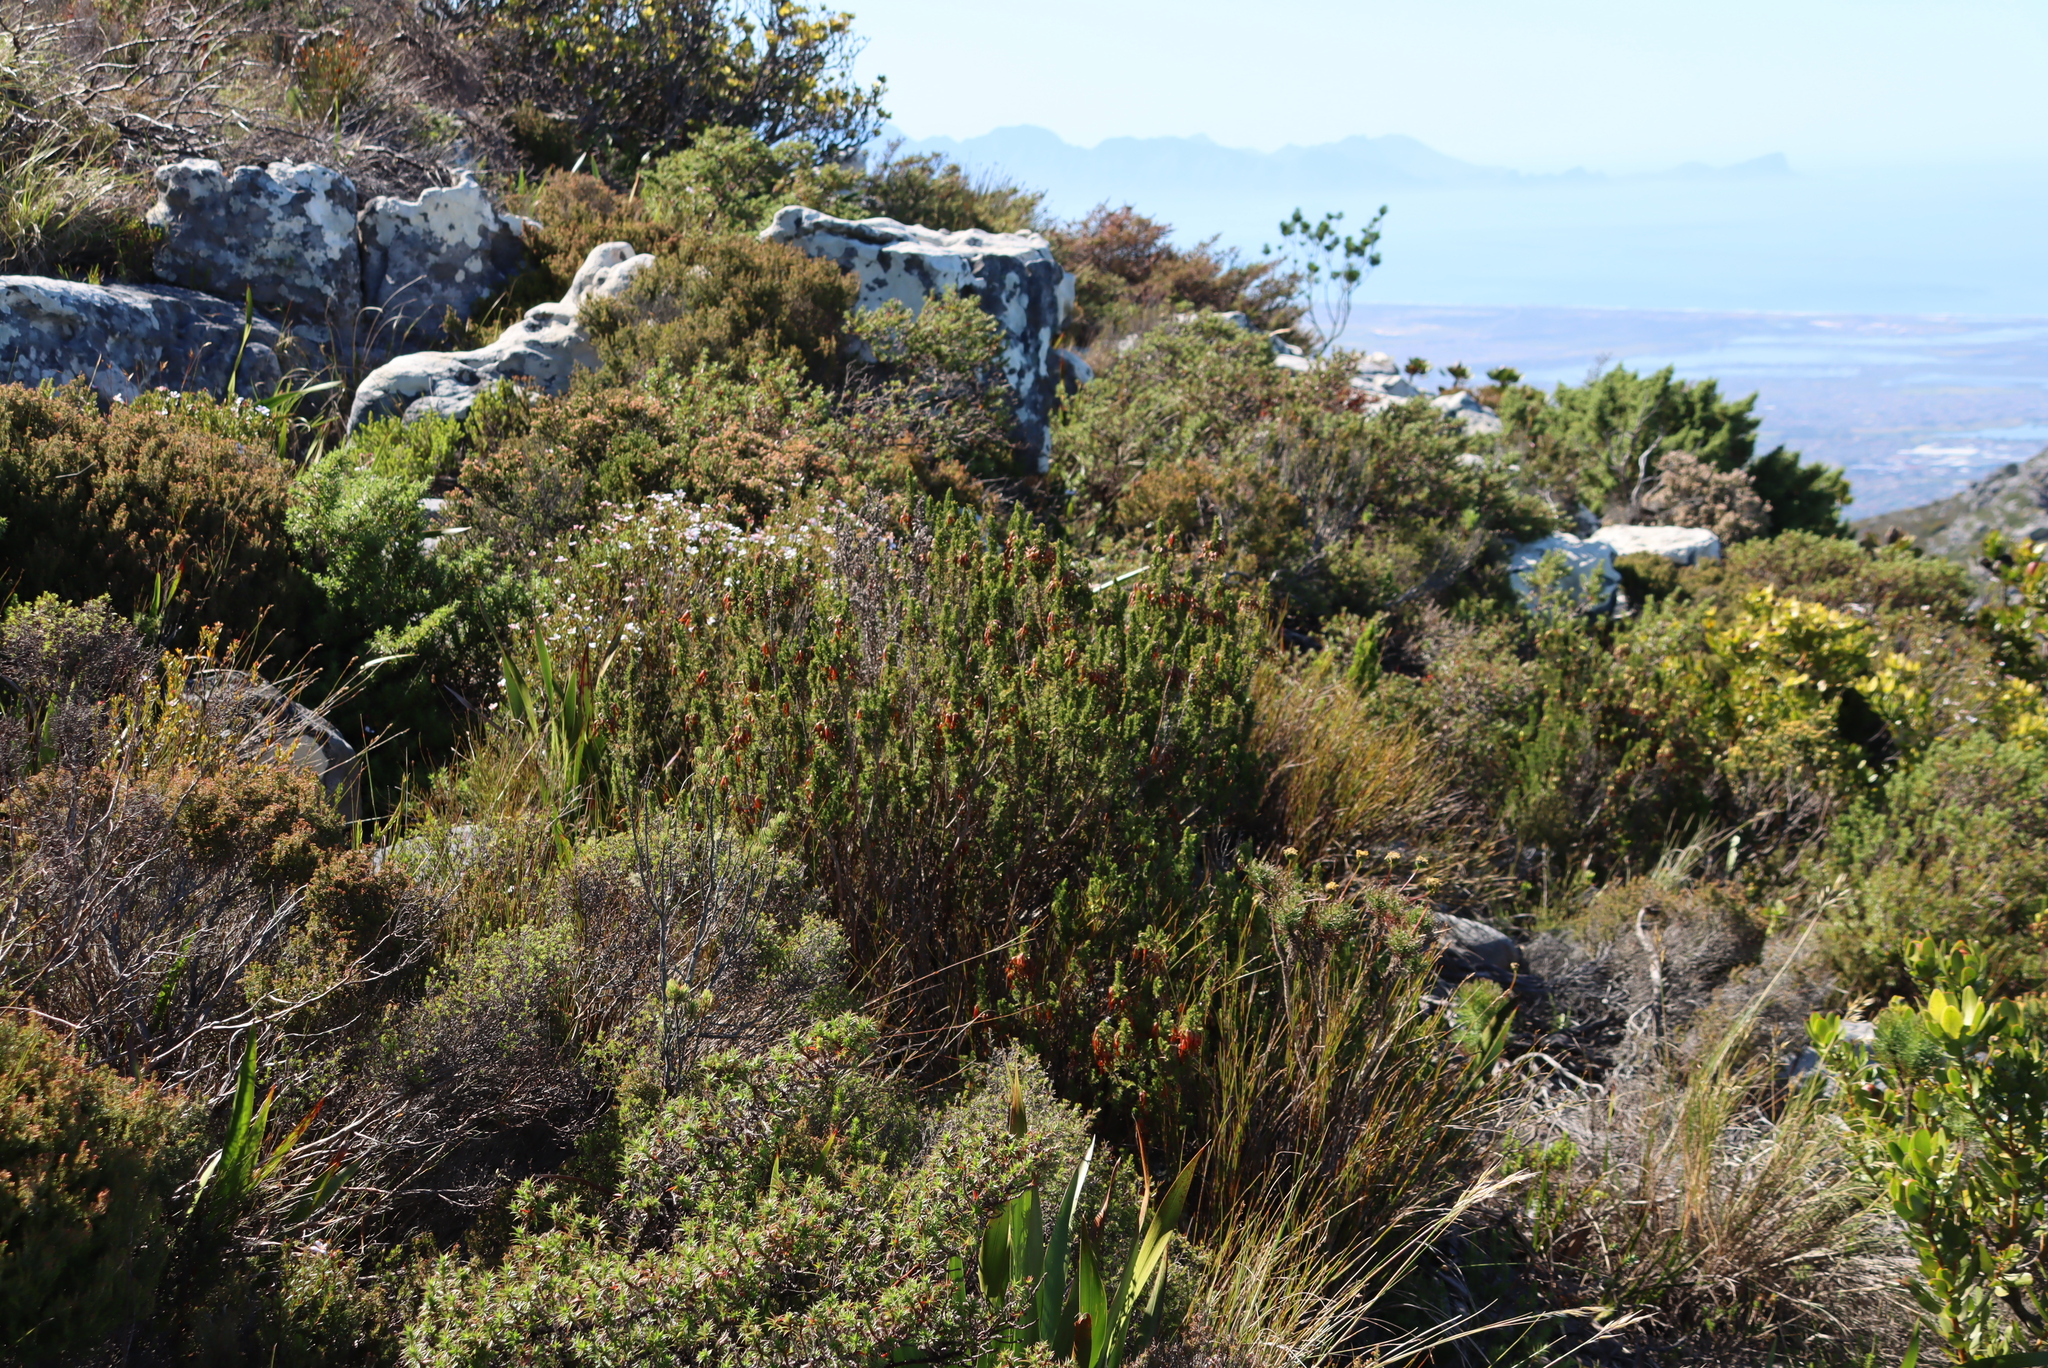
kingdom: Plantae
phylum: Tracheophyta
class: Magnoliopsida
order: Ericales
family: Ericaceae
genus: Erica
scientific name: Erica coccinea
